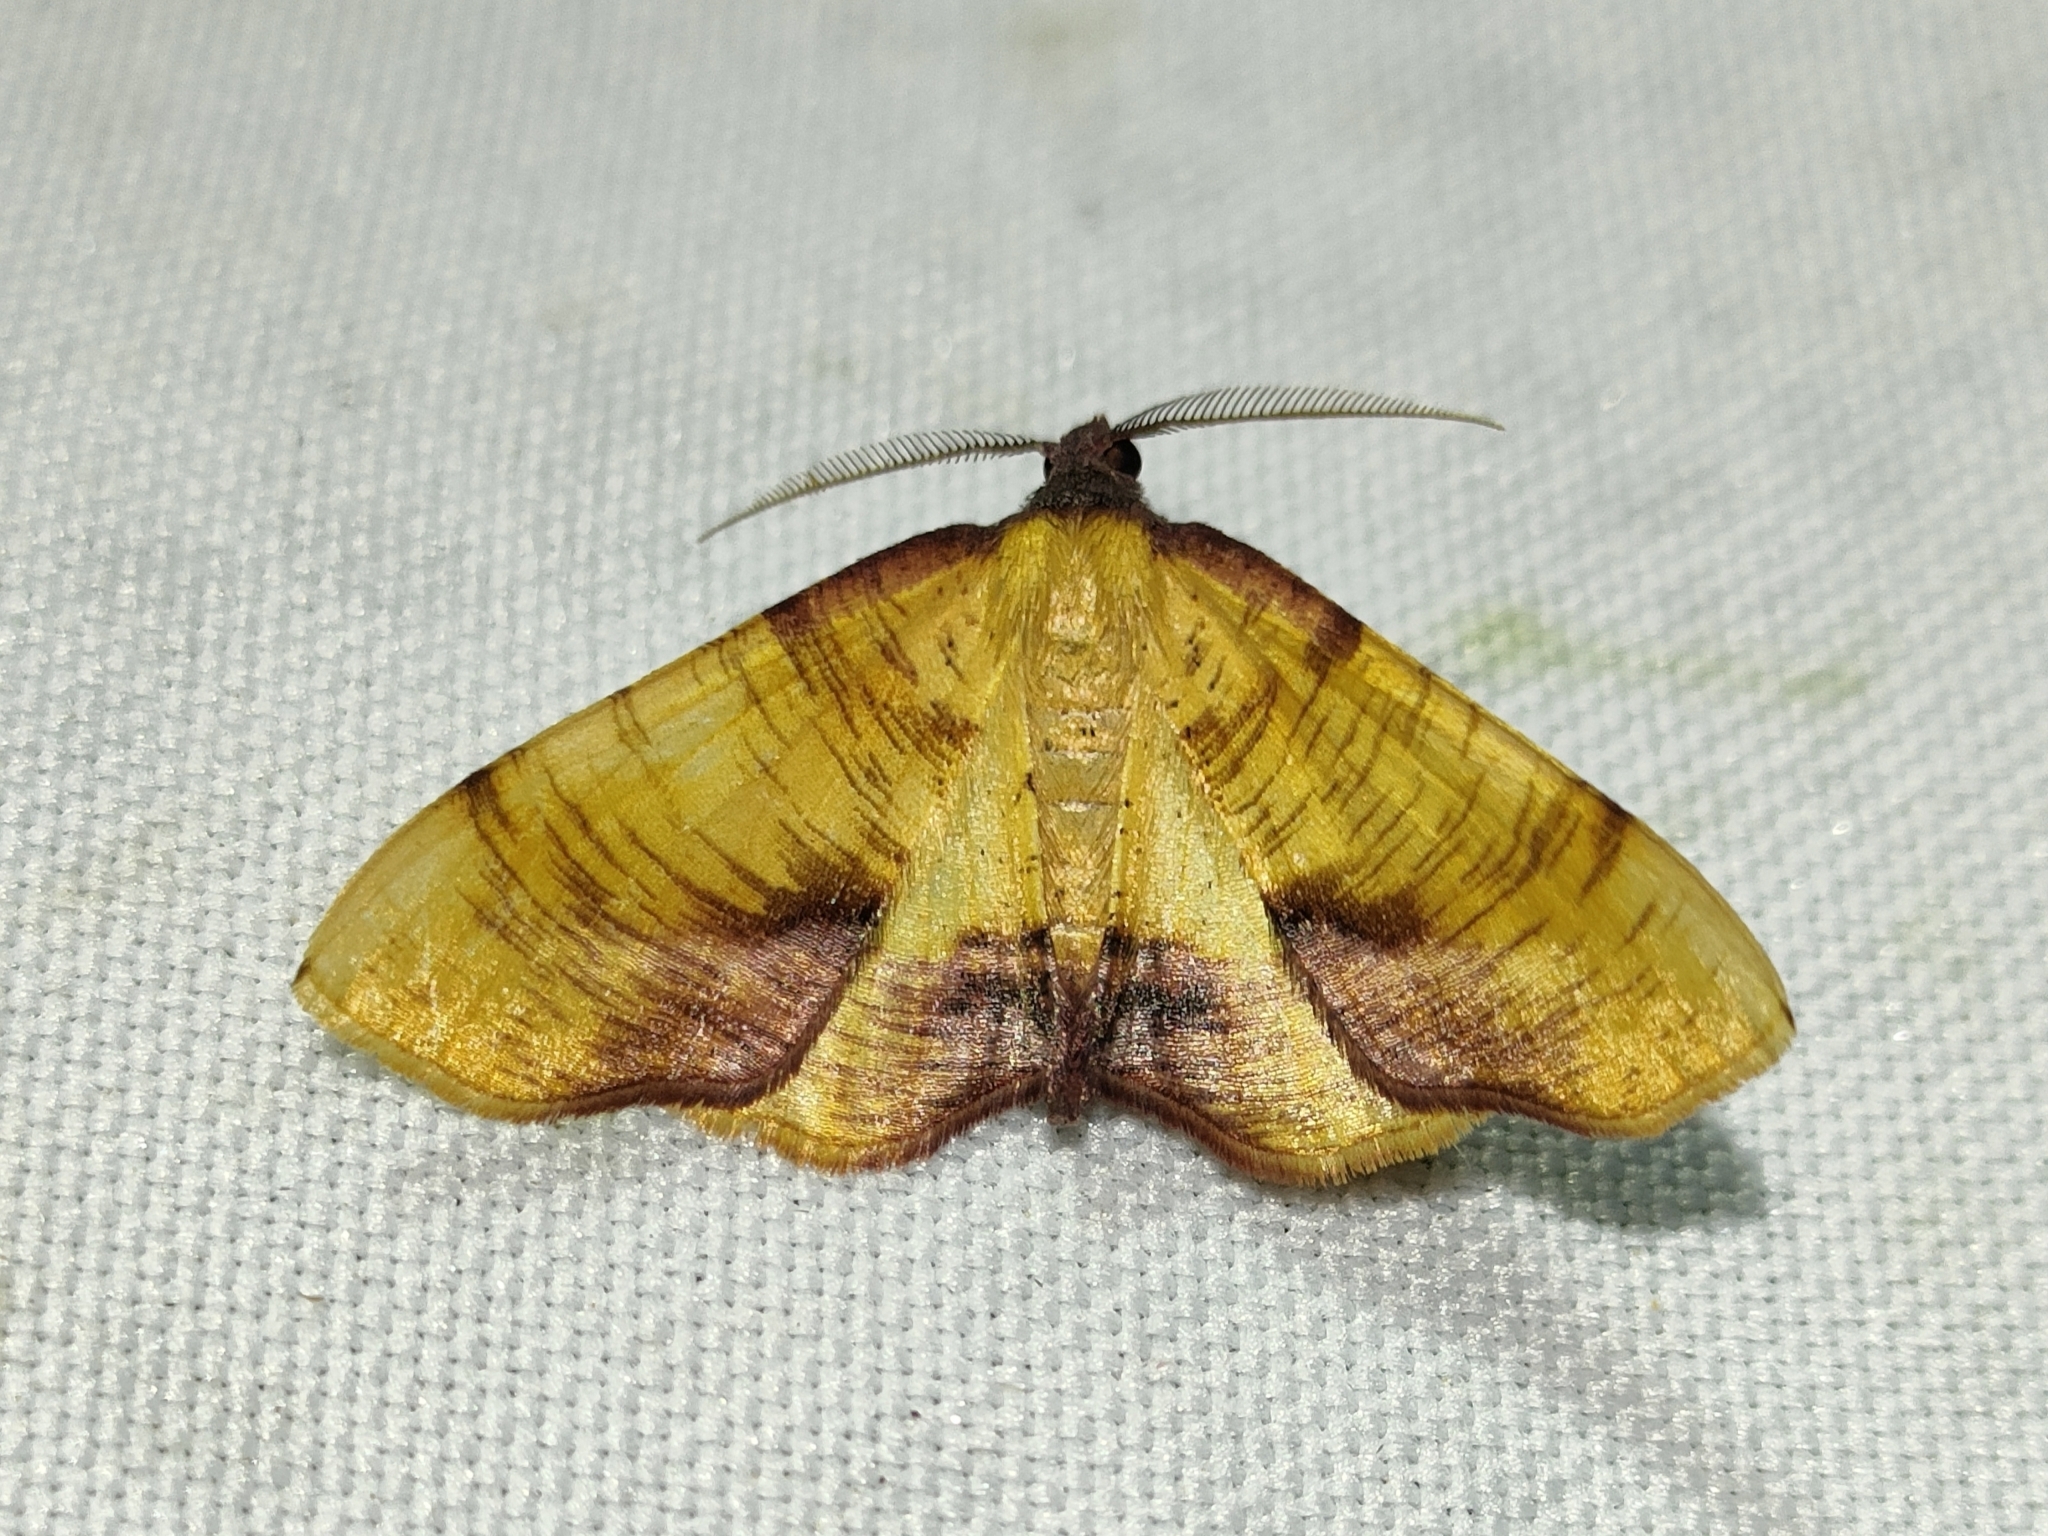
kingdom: Animalia
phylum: Arthropoda
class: Insecta
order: Lepidoptera
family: Geometridae
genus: Plagodis
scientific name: Plagodis dolabraria
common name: Scorched wing
